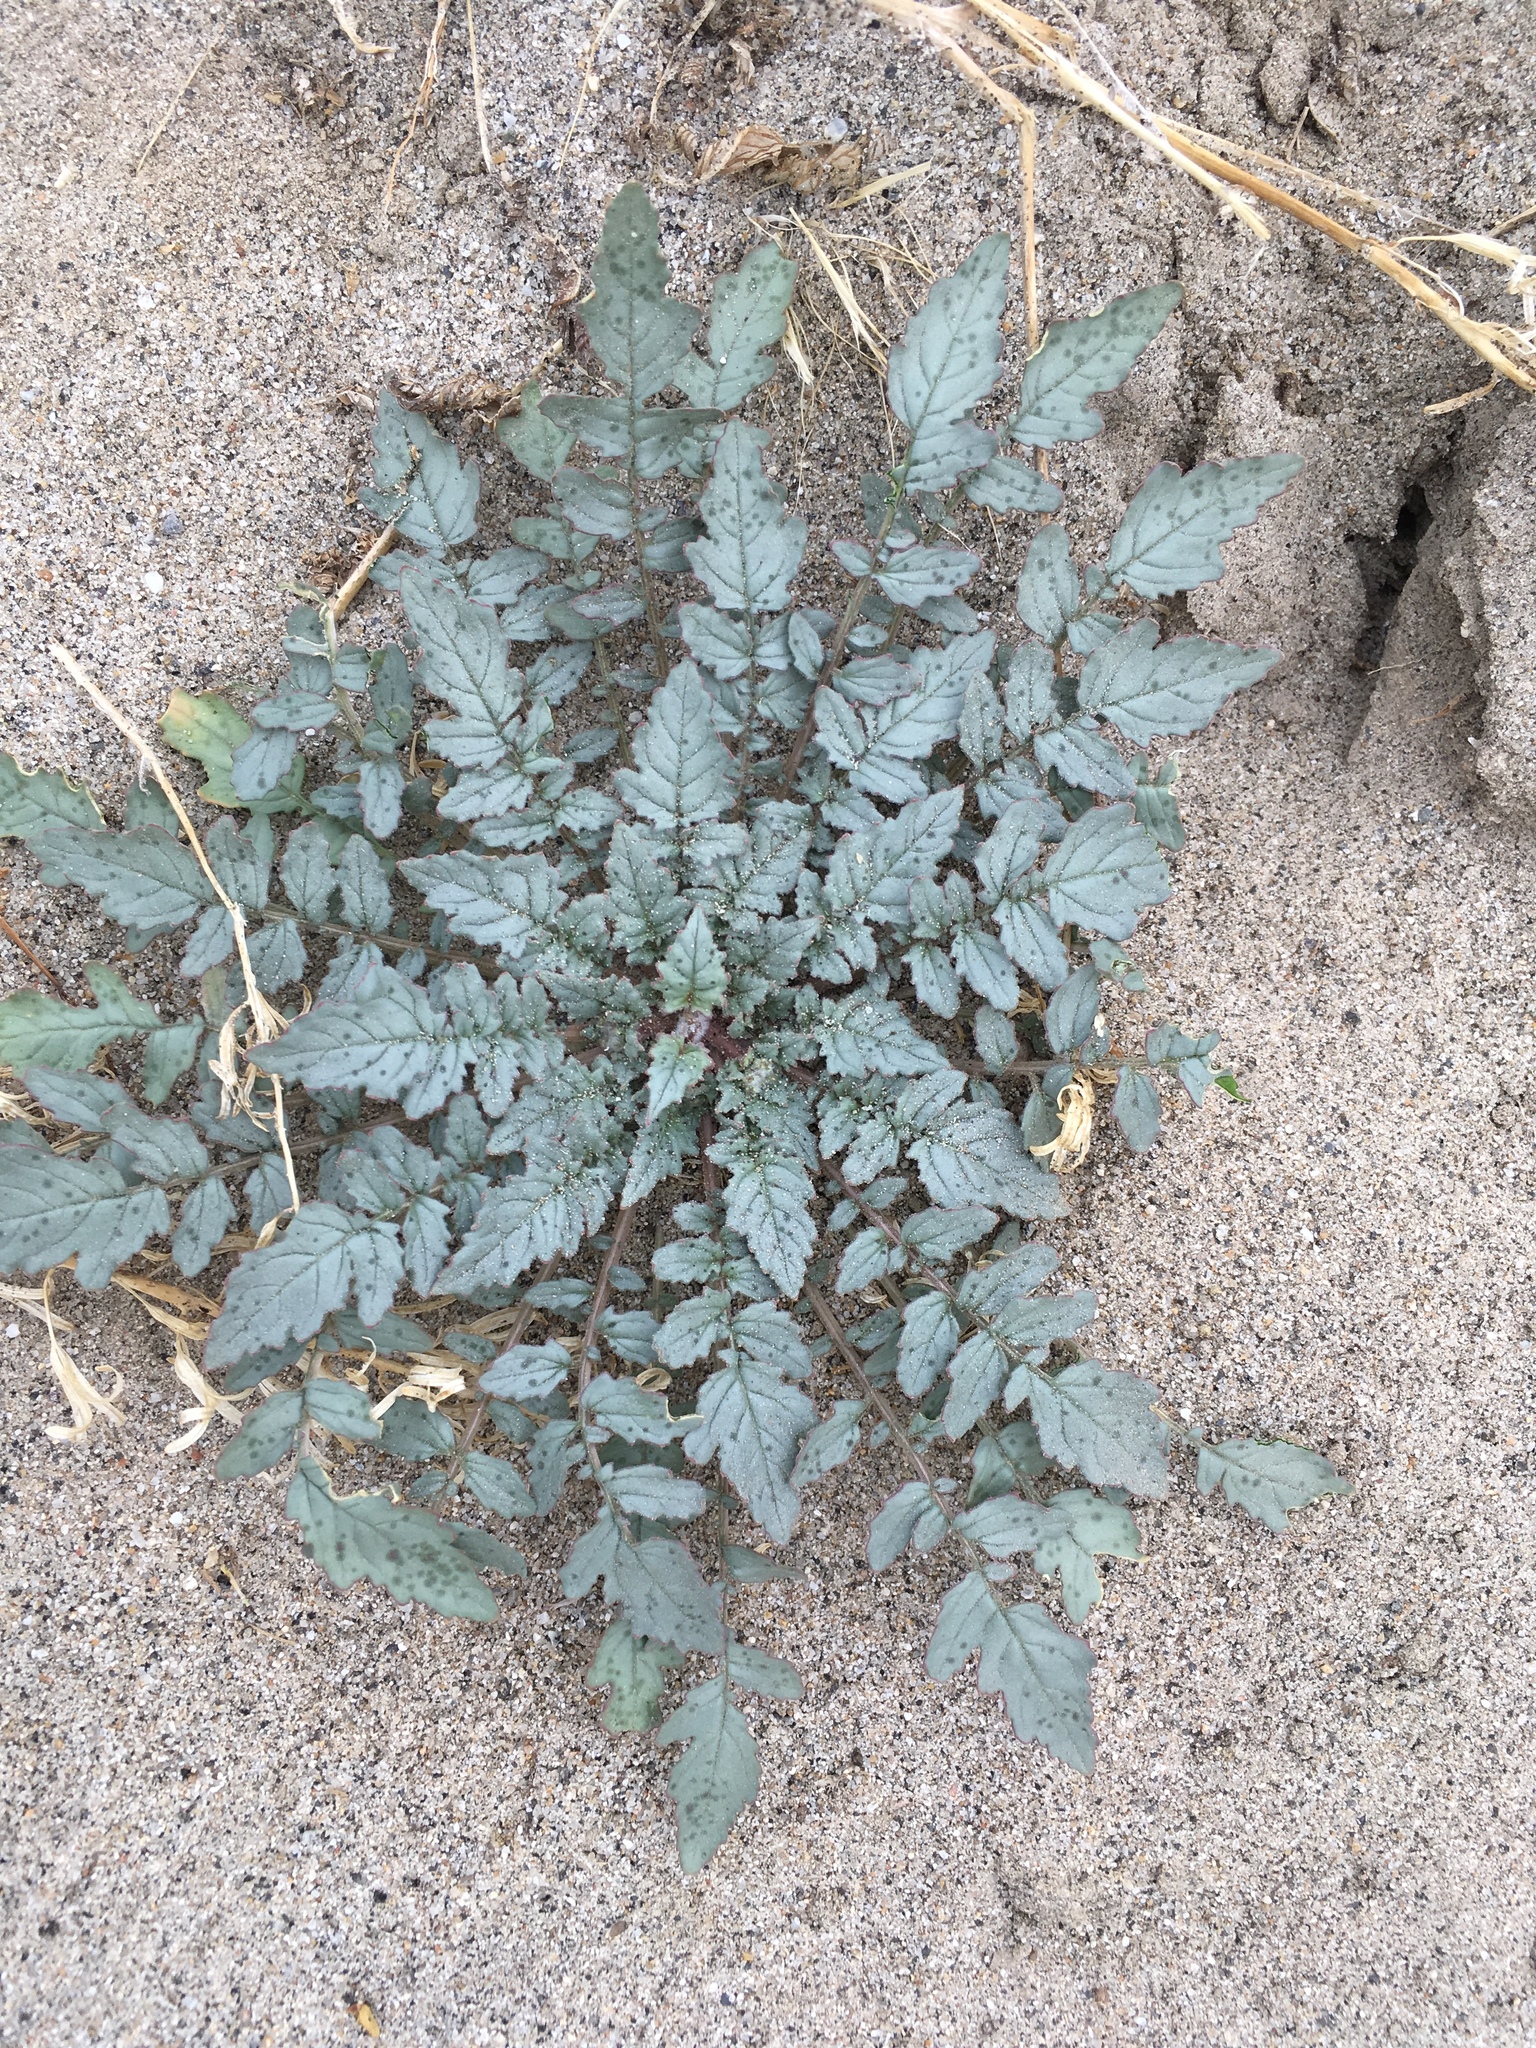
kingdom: Plantae
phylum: Tracheophyta
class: Magnoliopsida
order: Myrtales
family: Onagraceae
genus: Chylismia
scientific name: Chylismia claviformis
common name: Browneyes
